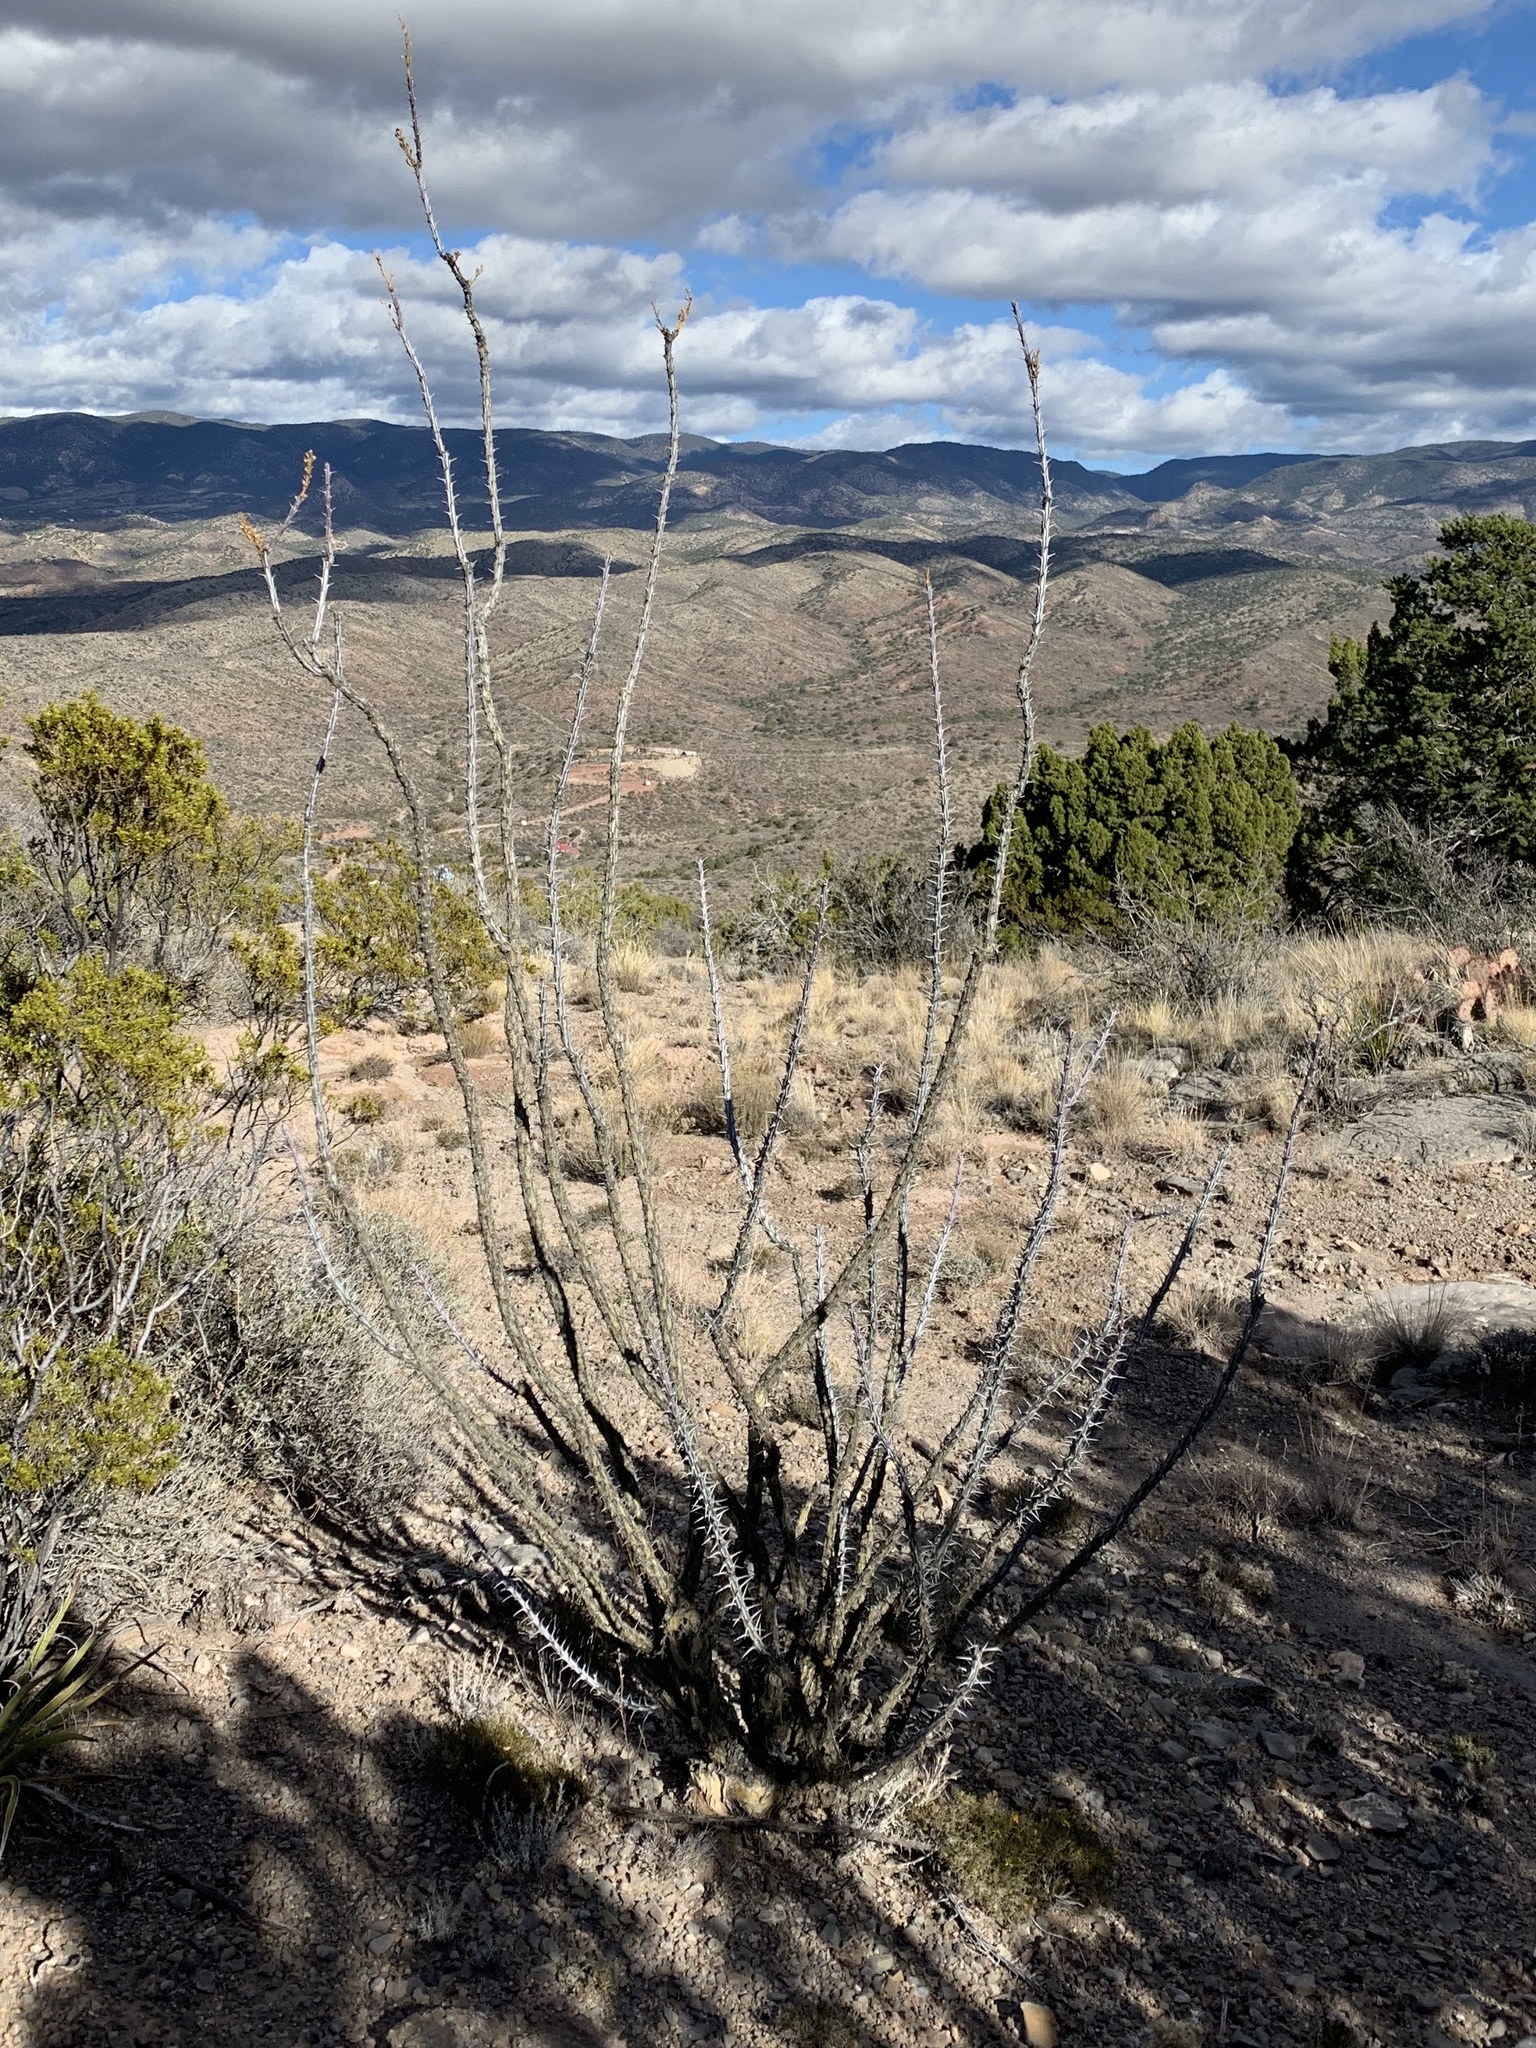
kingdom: Plantae
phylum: Tracheophyta
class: Magnoliopsida
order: Ericales
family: Fouquieriaceae
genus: Fouquieria
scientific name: Fouquieria splendens
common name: Vine-cactus
